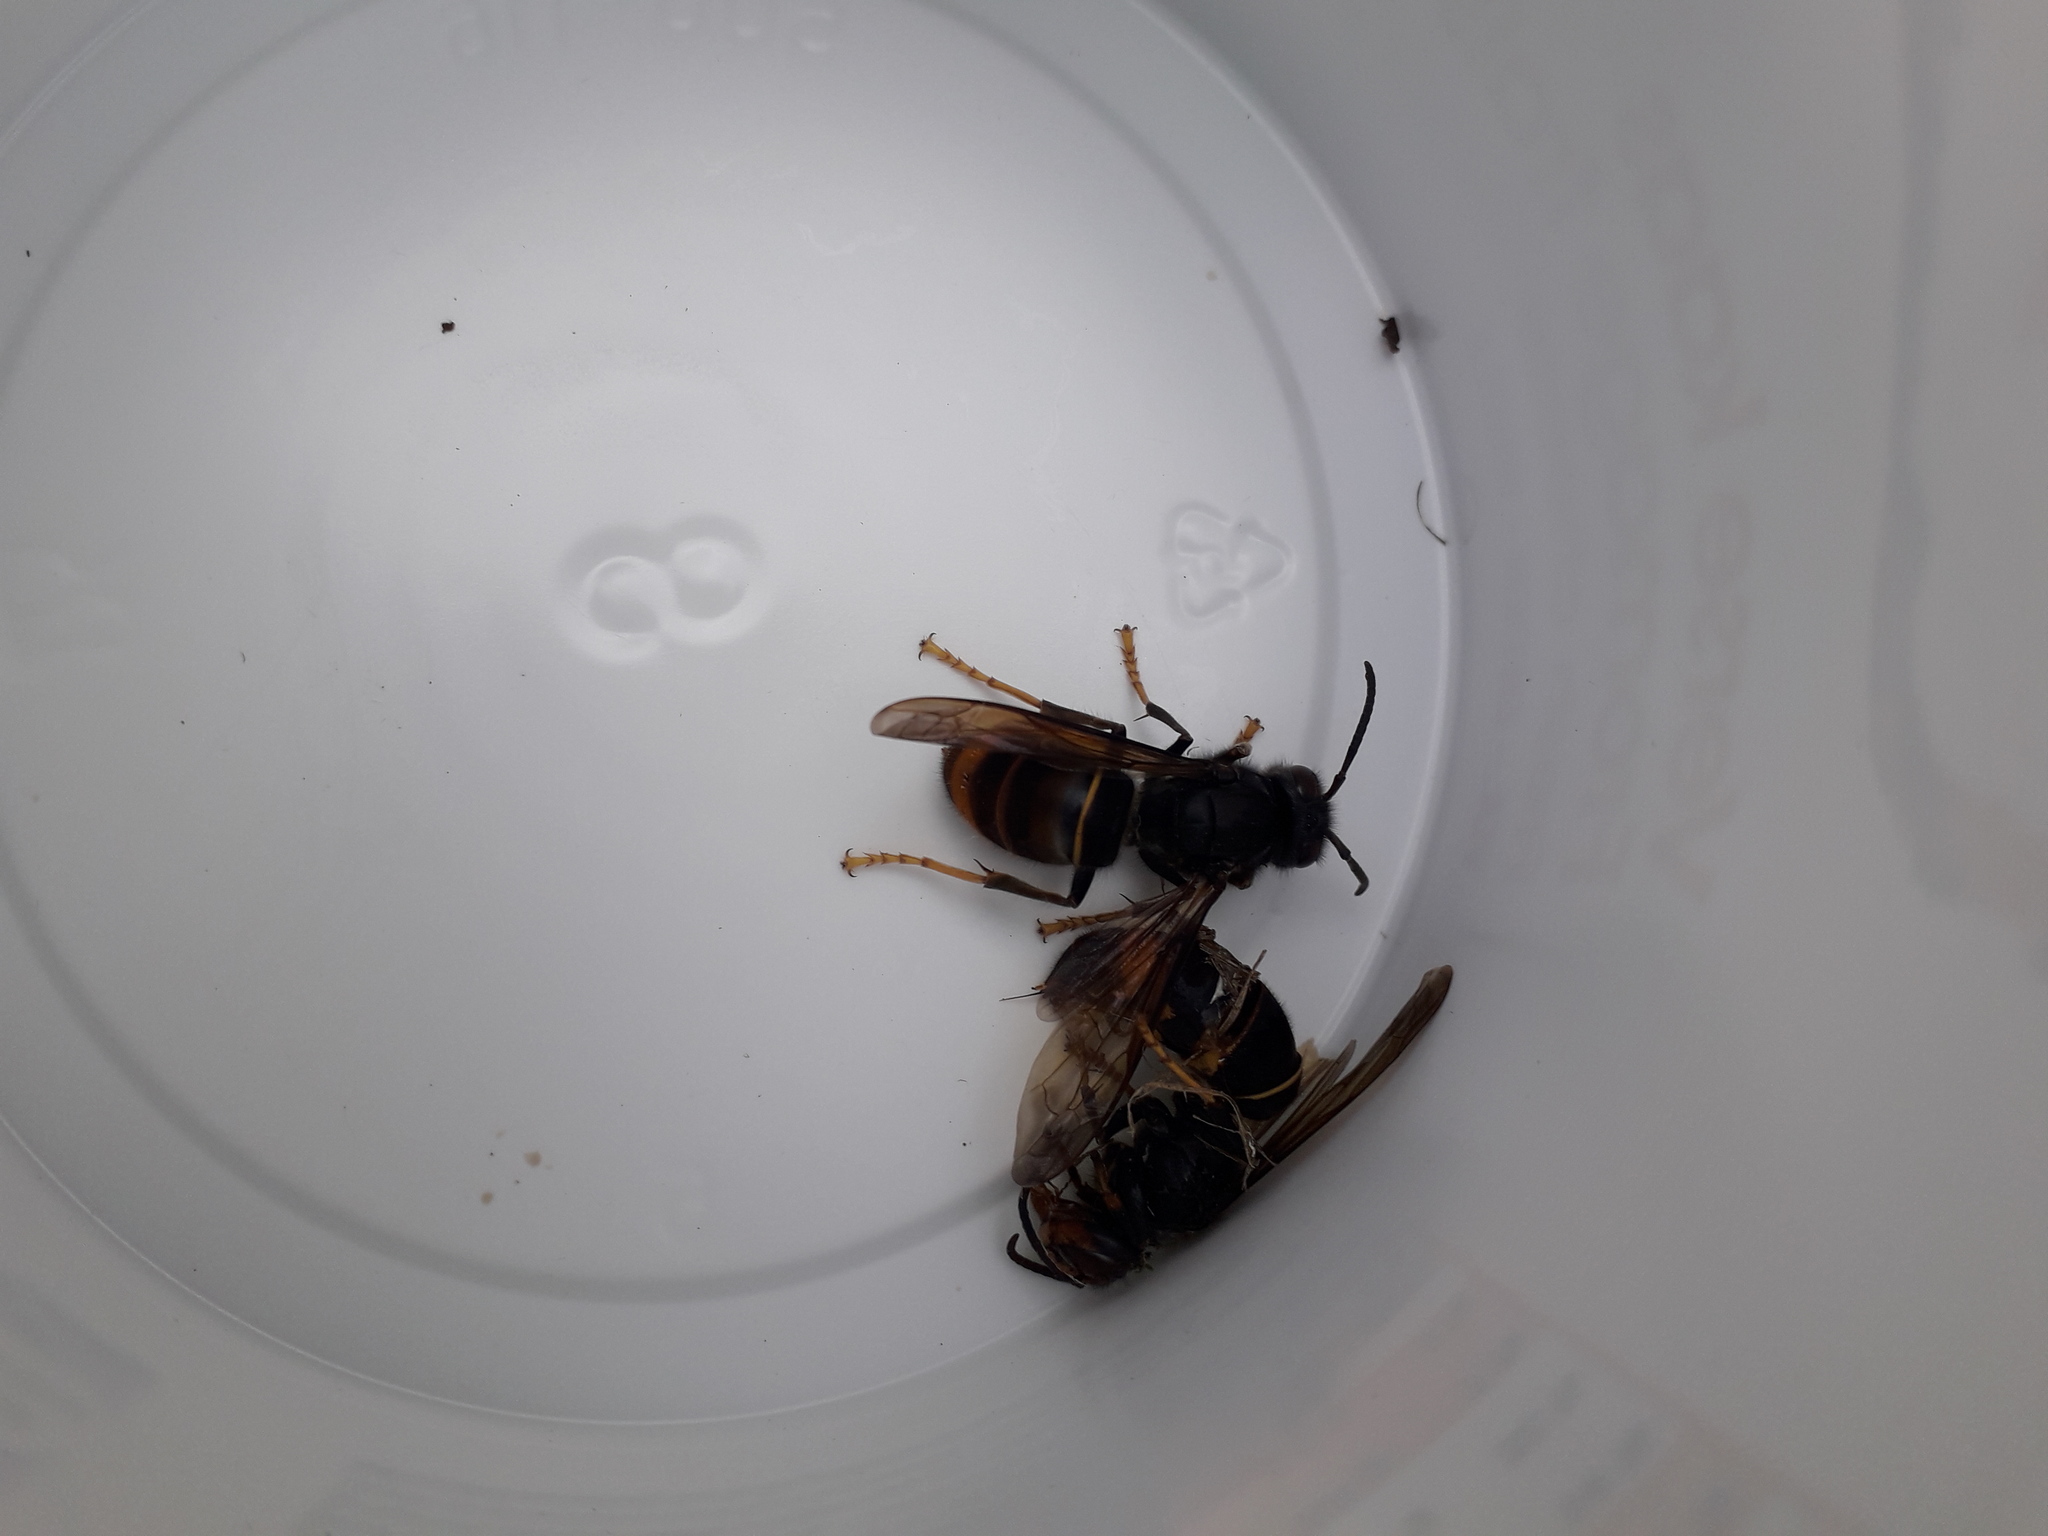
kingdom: Animalia
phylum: Arthropoda
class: Insecta
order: Hymenoptera
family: Vespidae
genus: Vespa
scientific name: Vespa velutina
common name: Asian hornet
